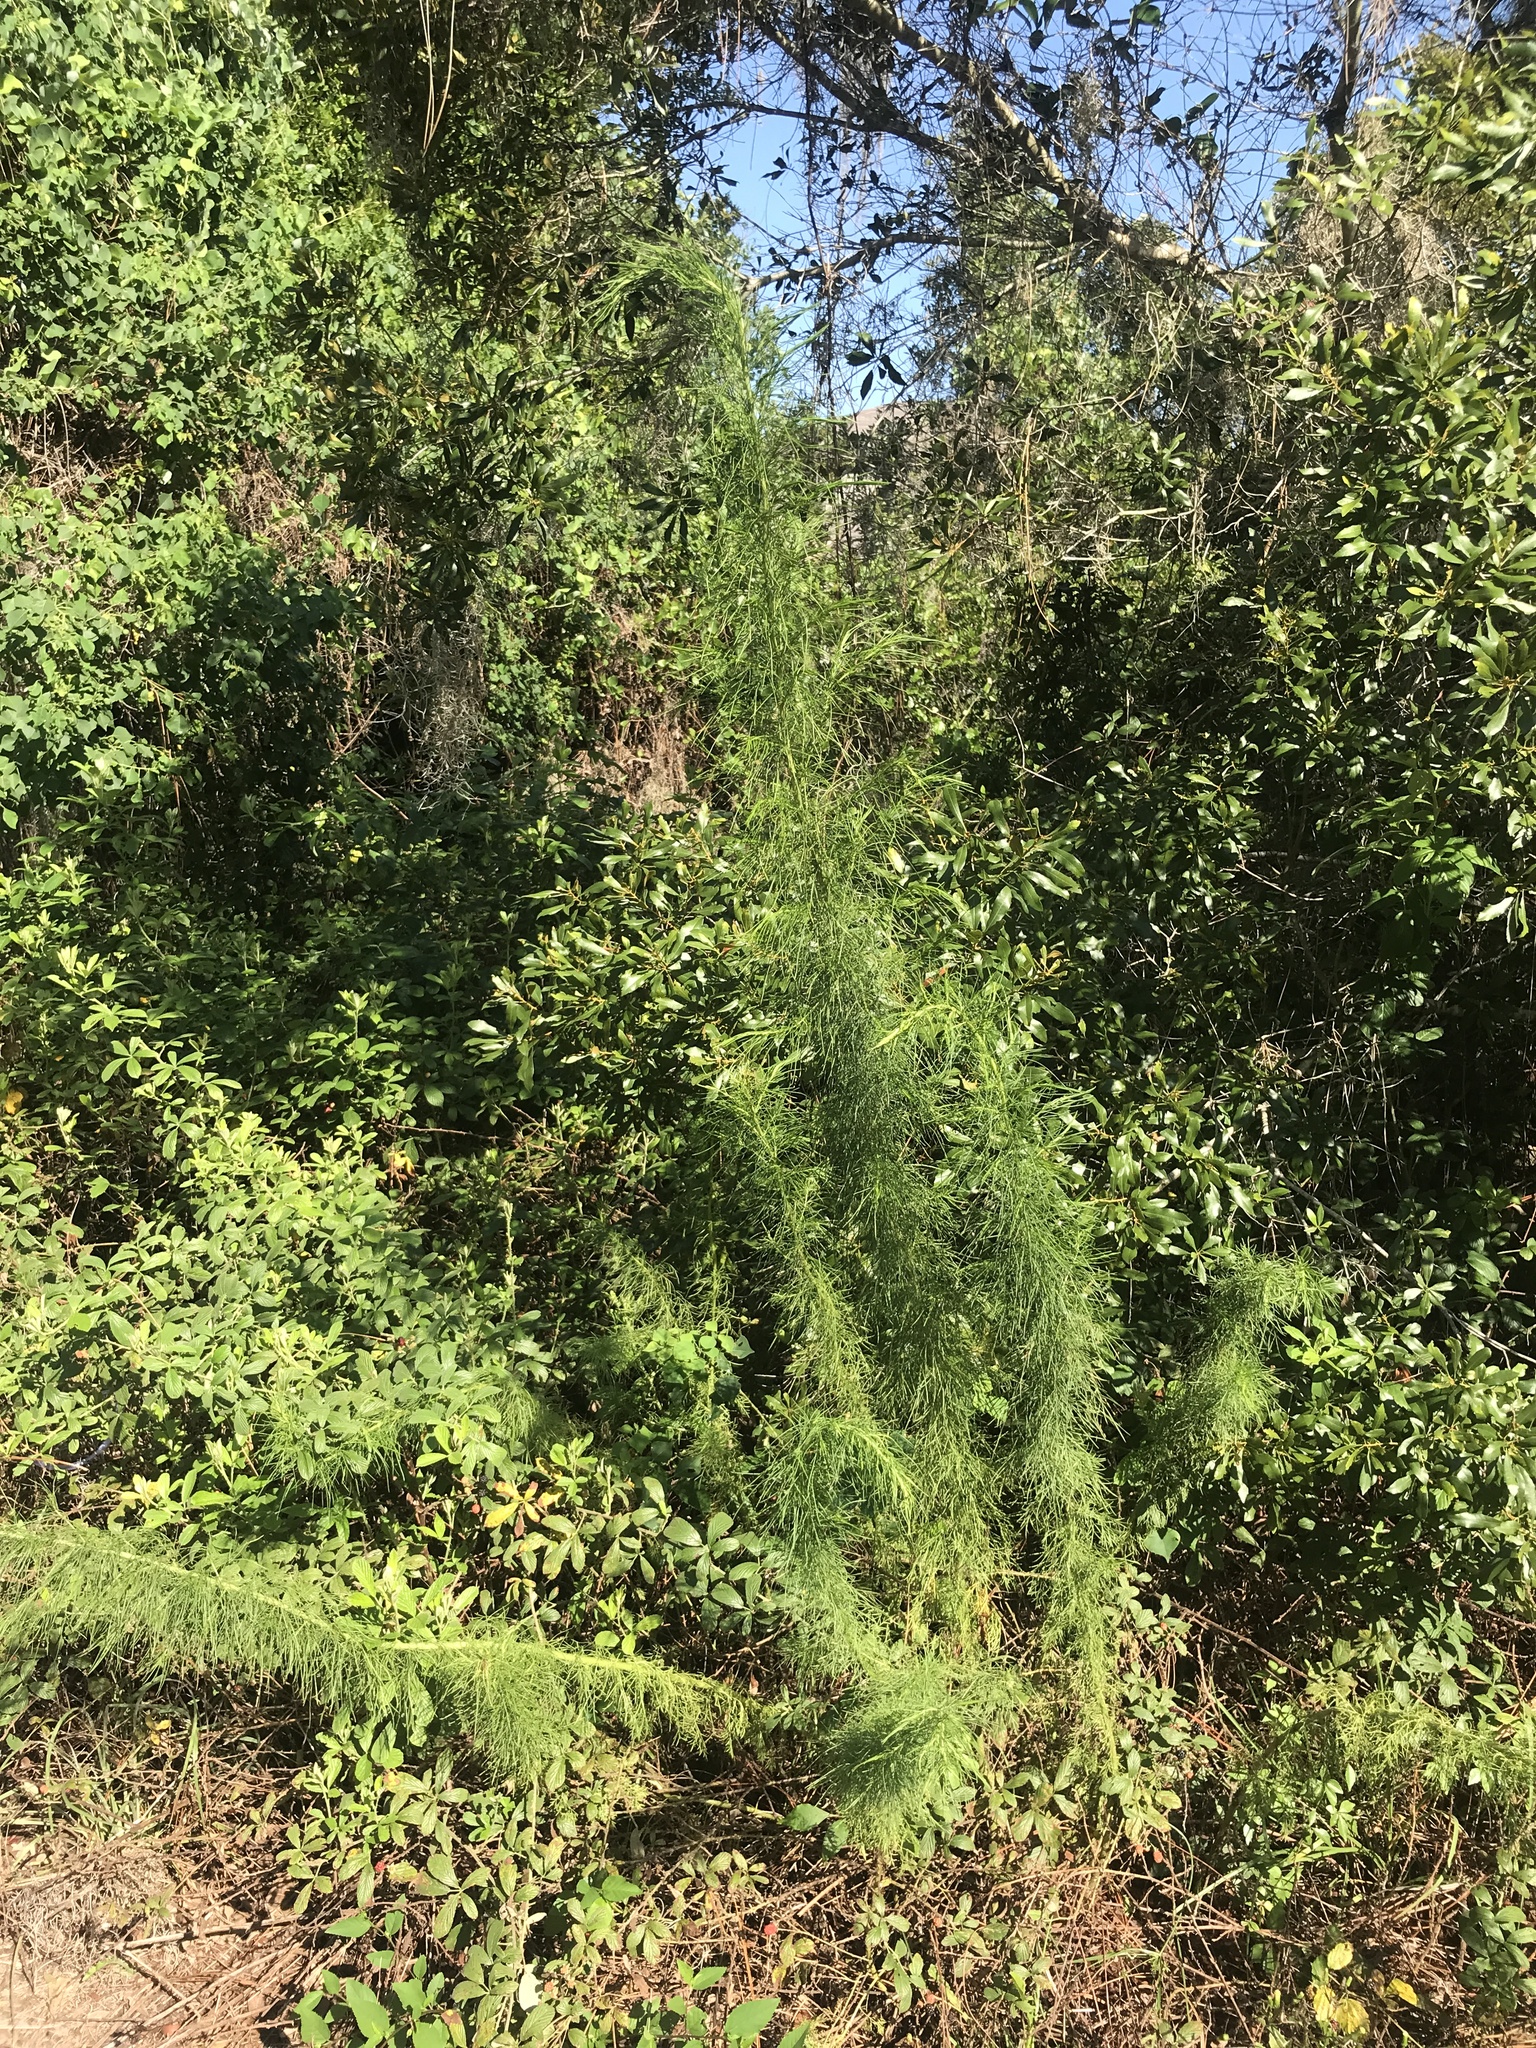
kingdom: Plantae
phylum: Tracheophyta
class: Magnoliopsida
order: Asterales
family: Asteraceae
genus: Eupatorium
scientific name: Eupatorium capillifolium
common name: Dog-fennel
